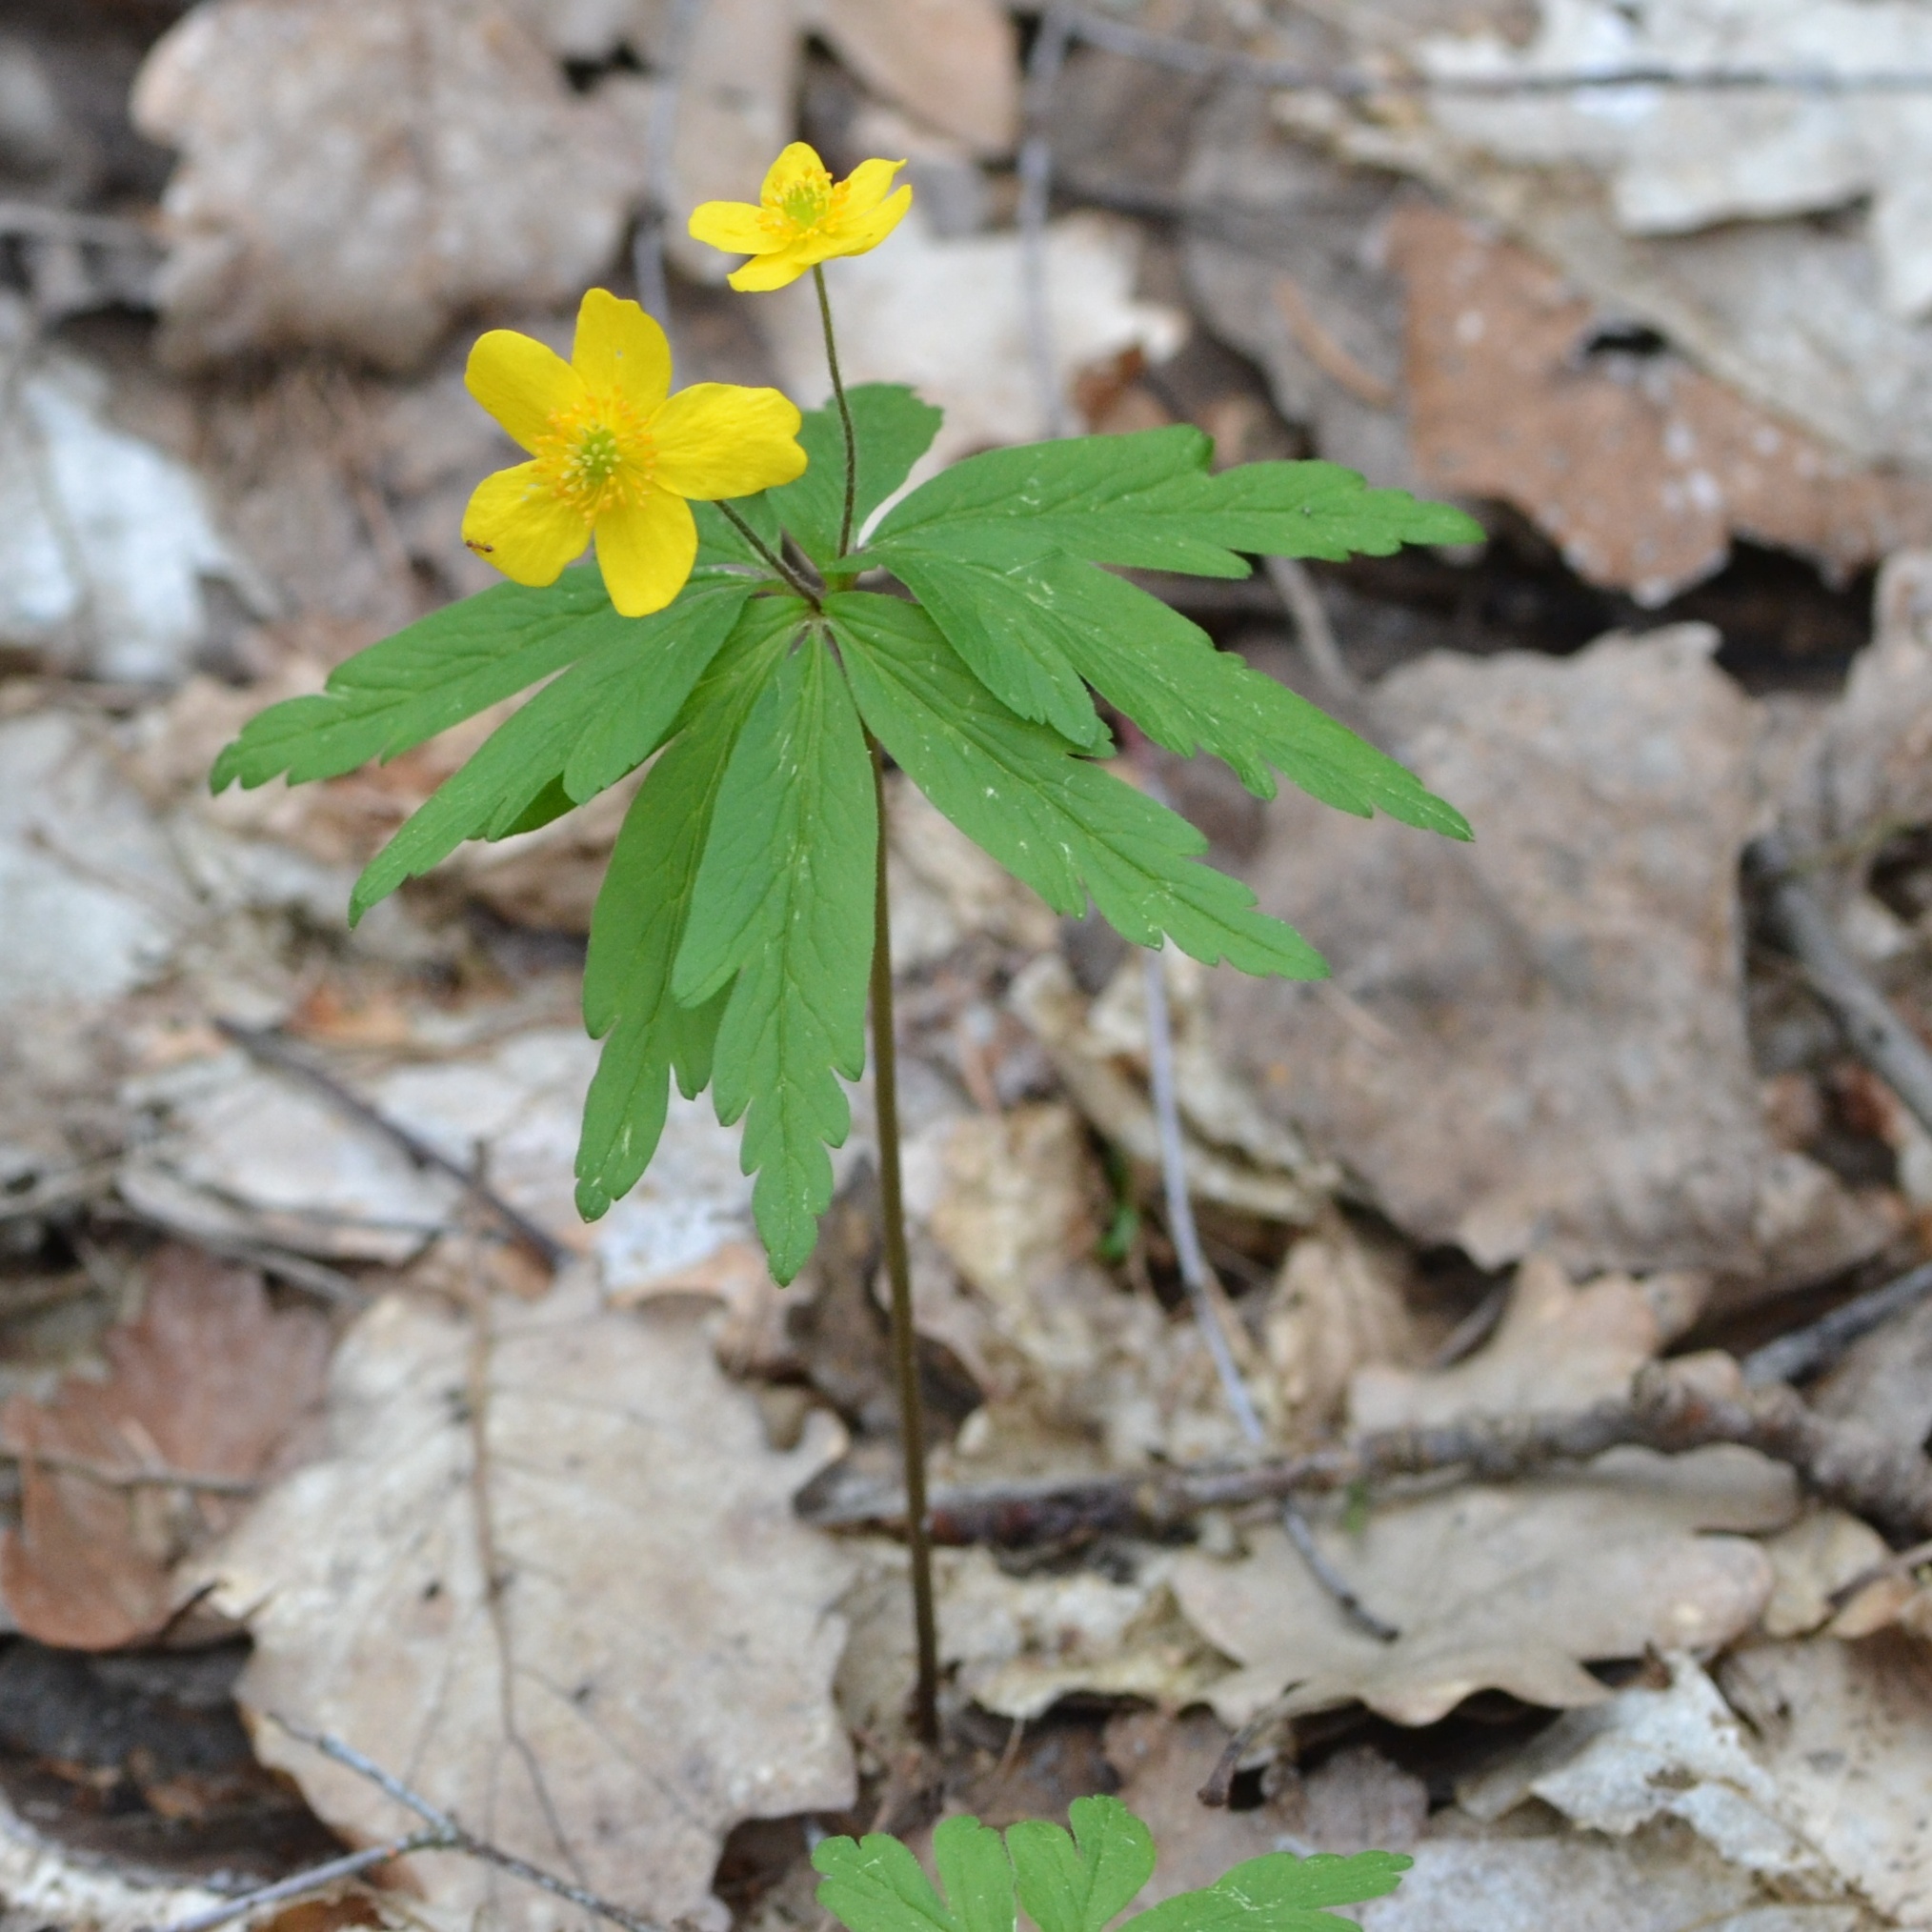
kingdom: Plantae
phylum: Tracheophyta
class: Magnoliopsida
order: Ranunculales
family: Ranunculaceae
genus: Anemone
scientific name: Anemone ranunculoides
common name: Yellow anemone
